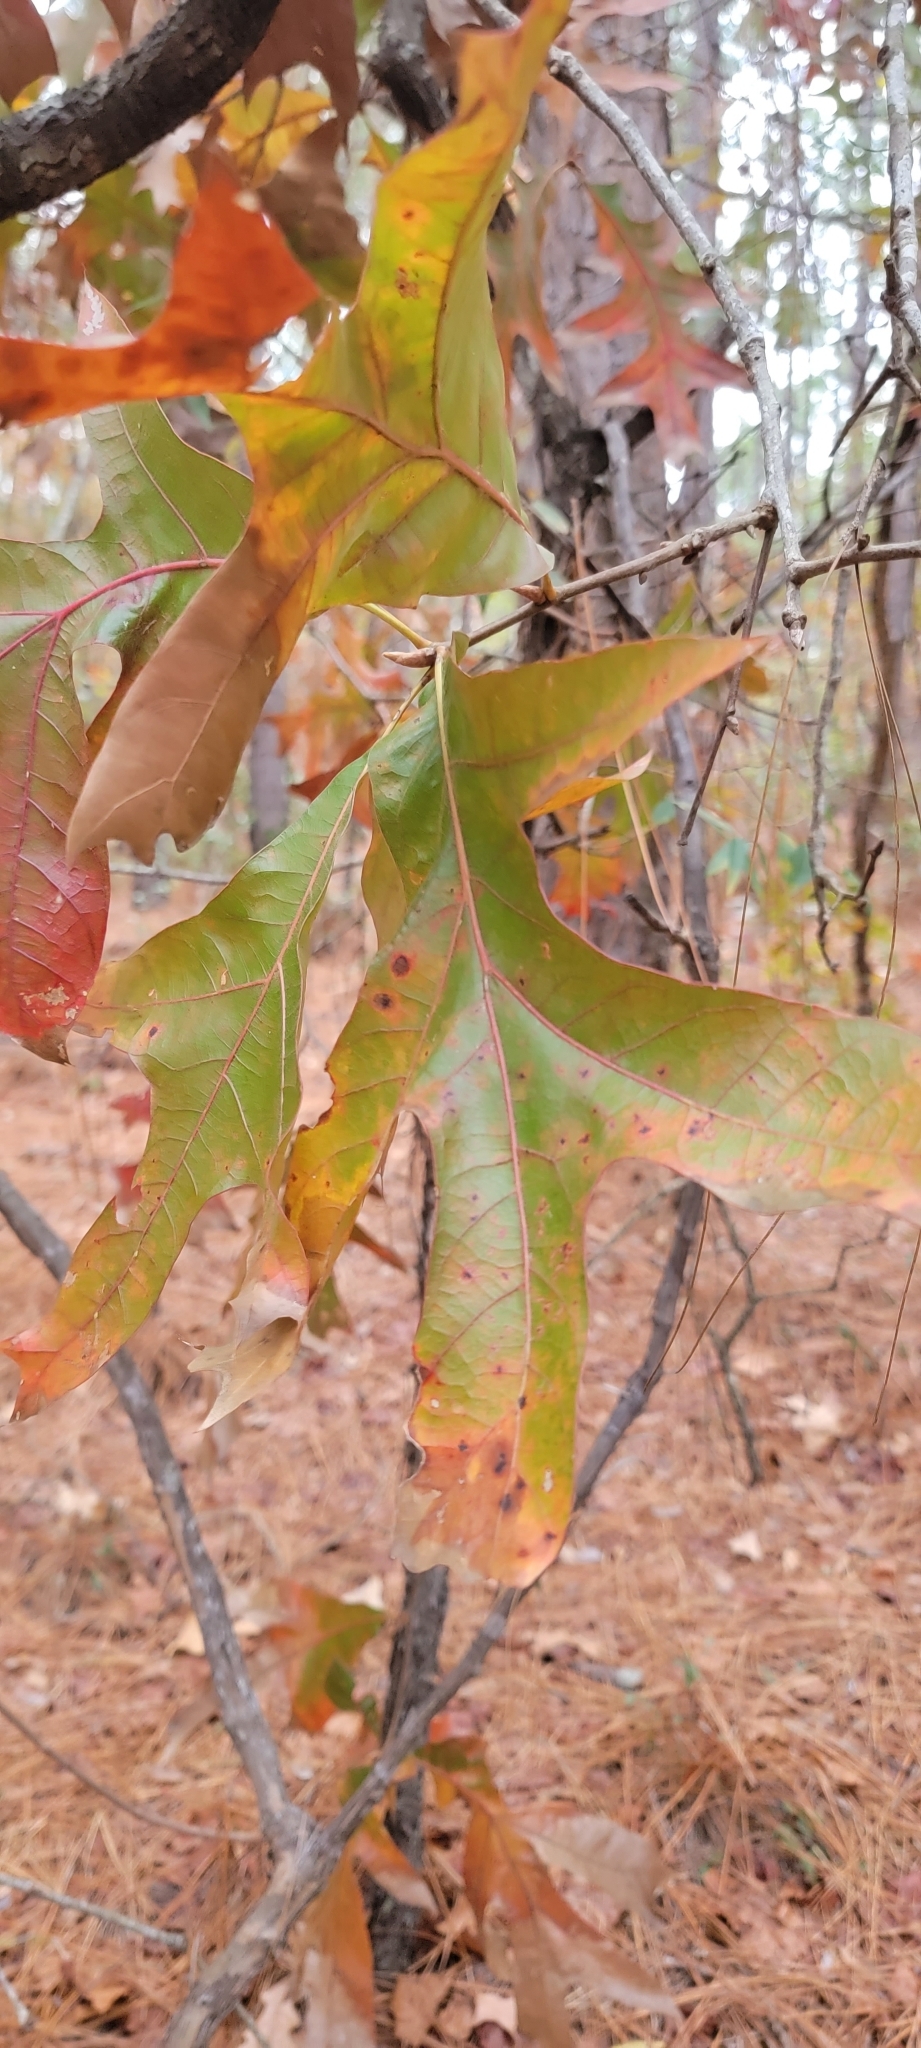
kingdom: Plantae
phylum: Tracheophyta
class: Magnoliopsida
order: Fagales
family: Fagaceae
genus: Quercus
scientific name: Quercus laevis
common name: Turkey oak
